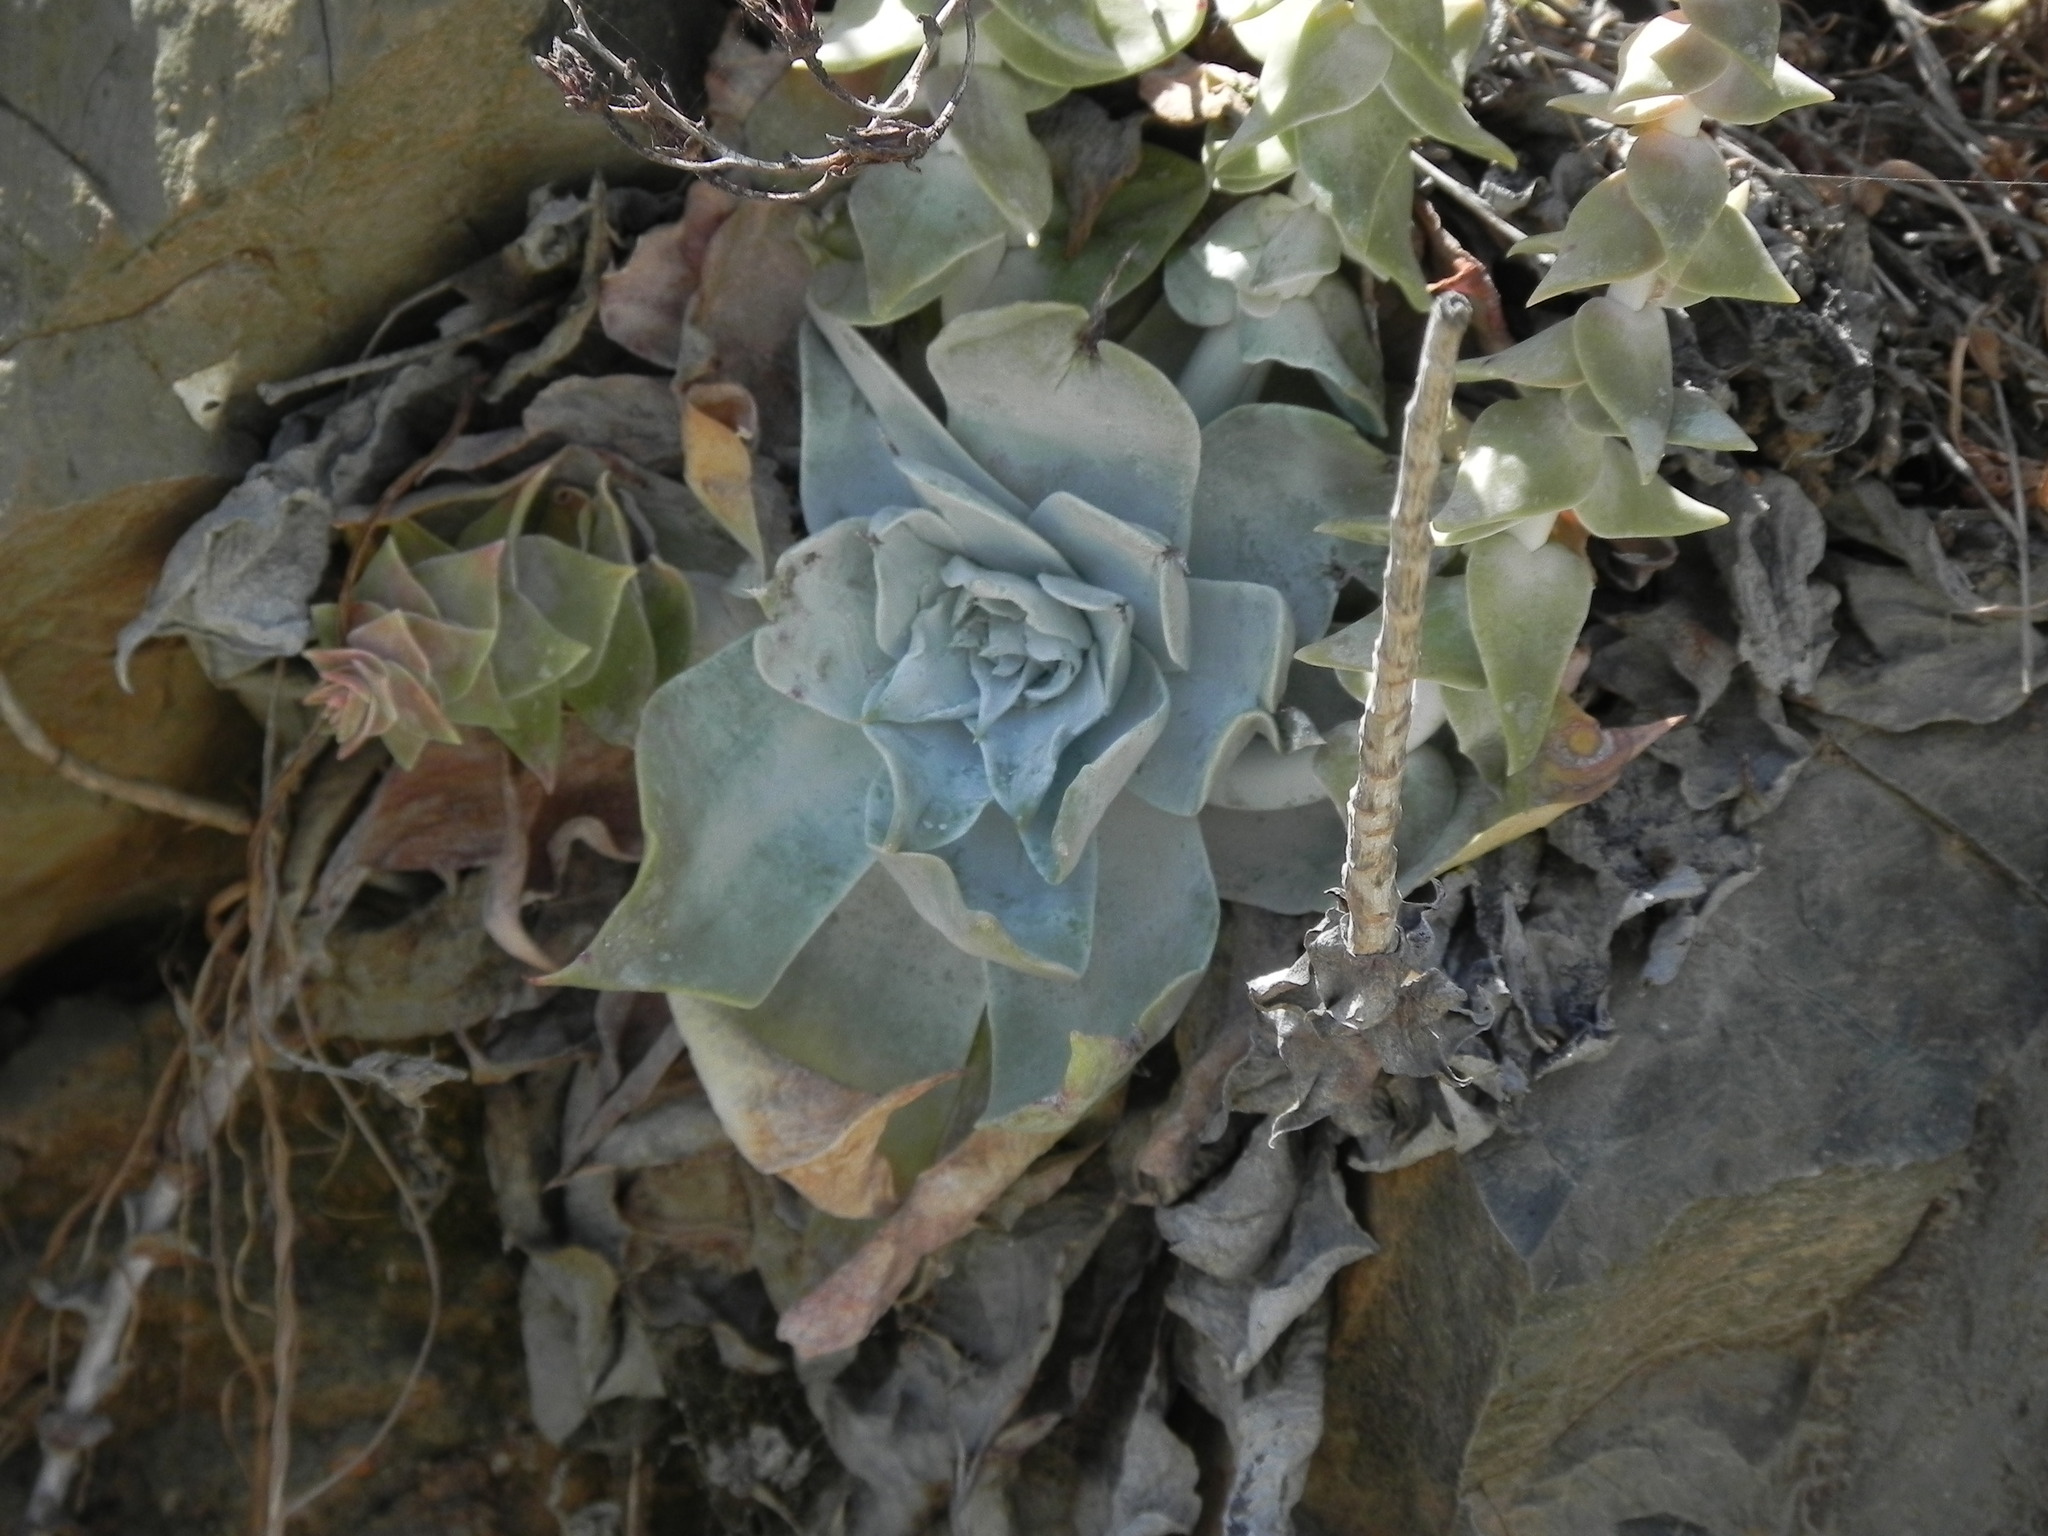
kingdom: Plantae
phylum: Tracheophyta
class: Magnoliopsida
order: Saxifragales
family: Crassulaceae
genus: Dudleya
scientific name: Dudleya pulverulenta
